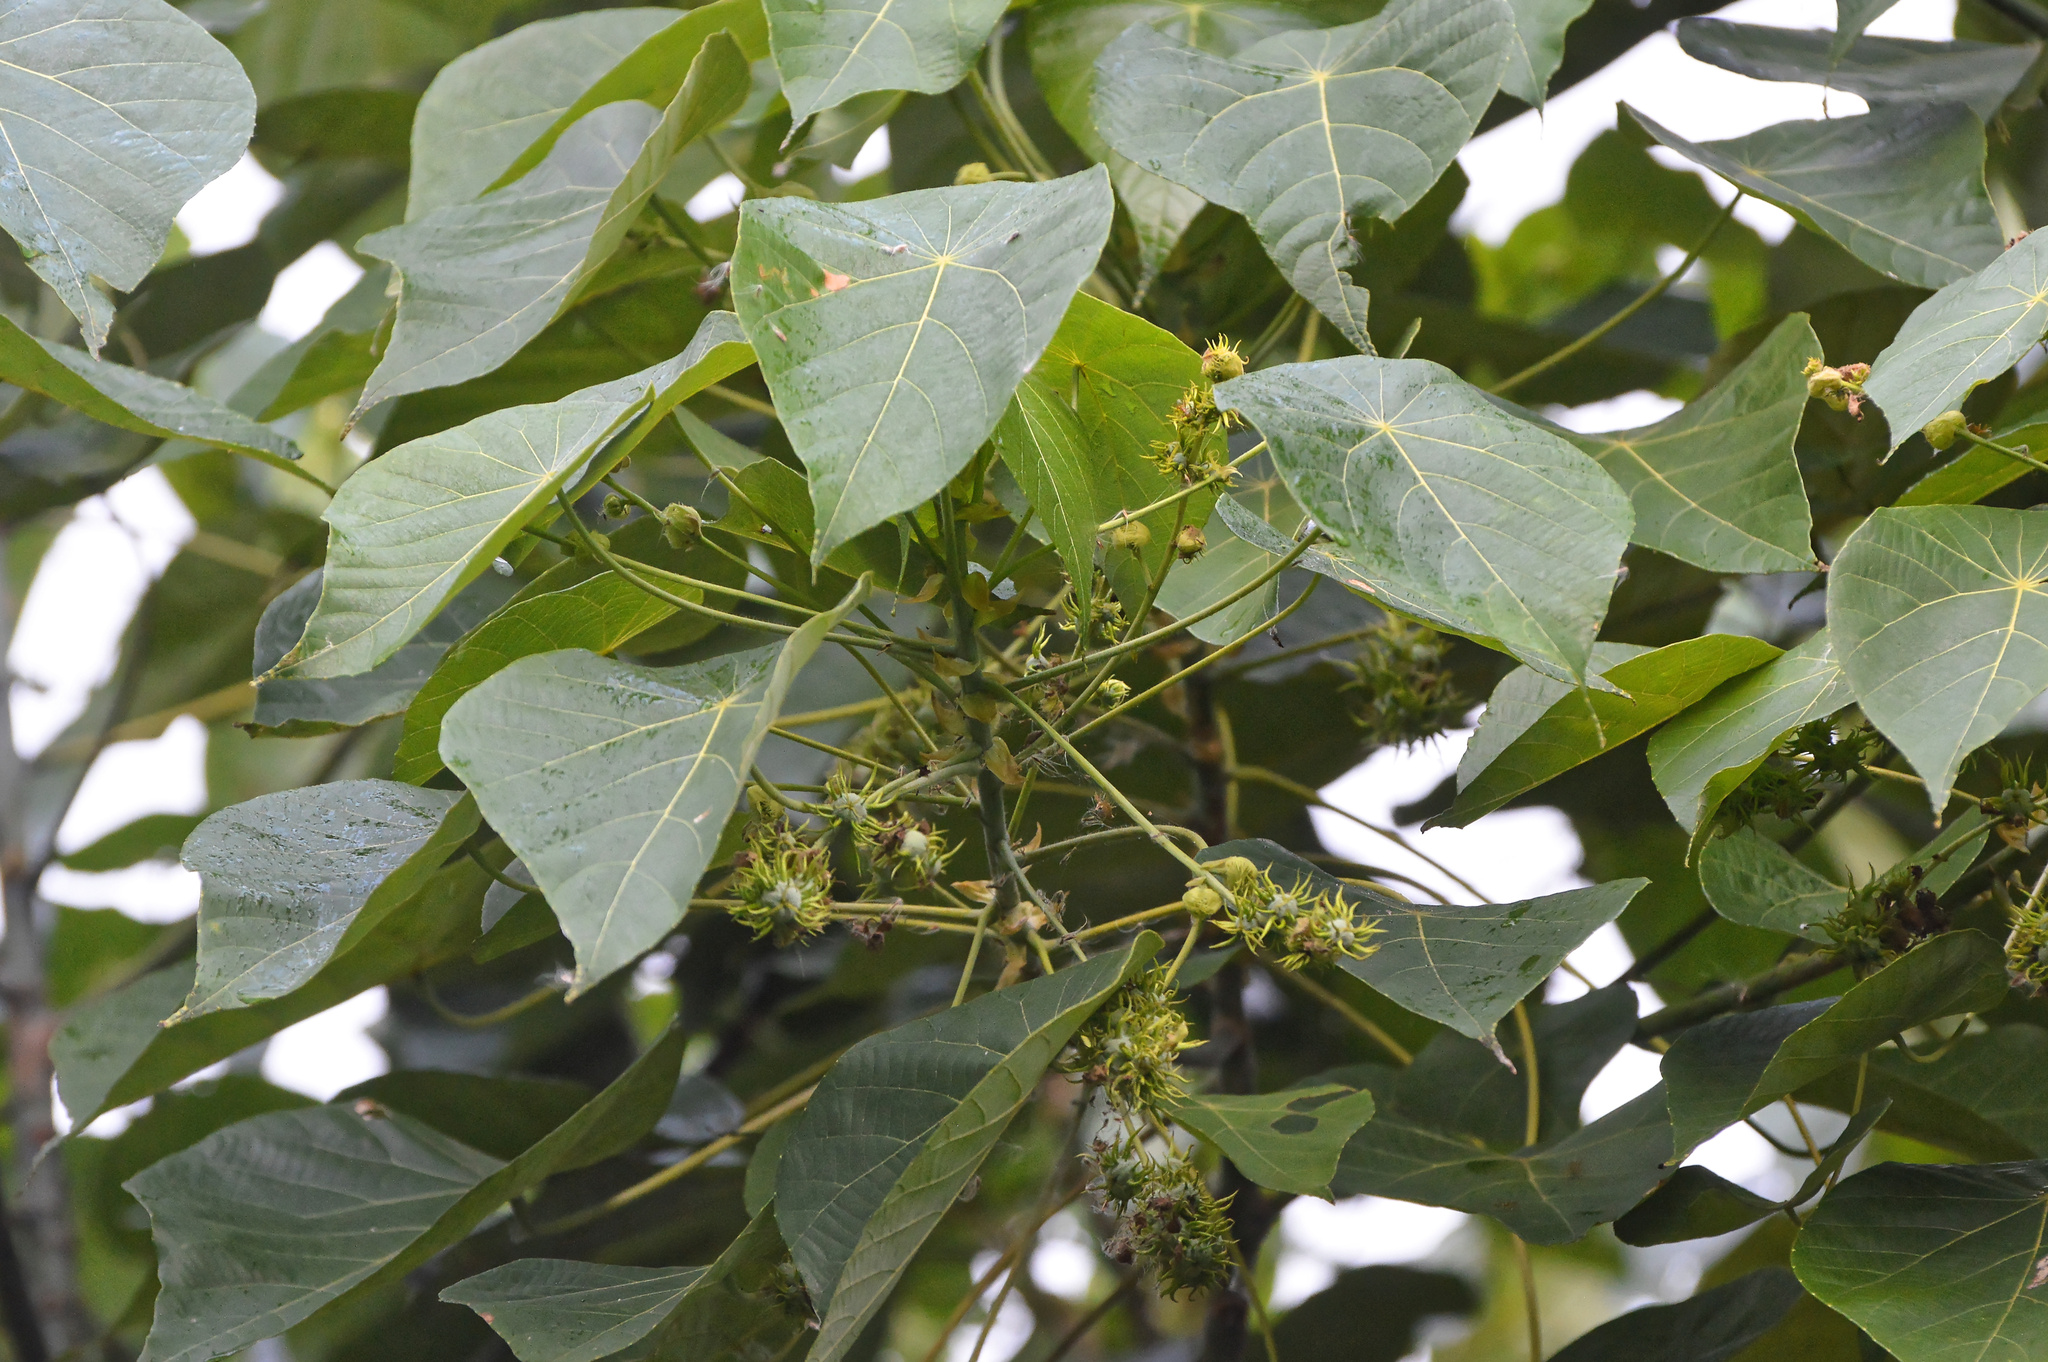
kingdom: Plantae
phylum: Tracheophyta
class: Magnoliopsida
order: Malpighiales
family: Euphorbiaceae
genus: Macaranga
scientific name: Macaranga tanarius
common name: Parasol leaf tree
